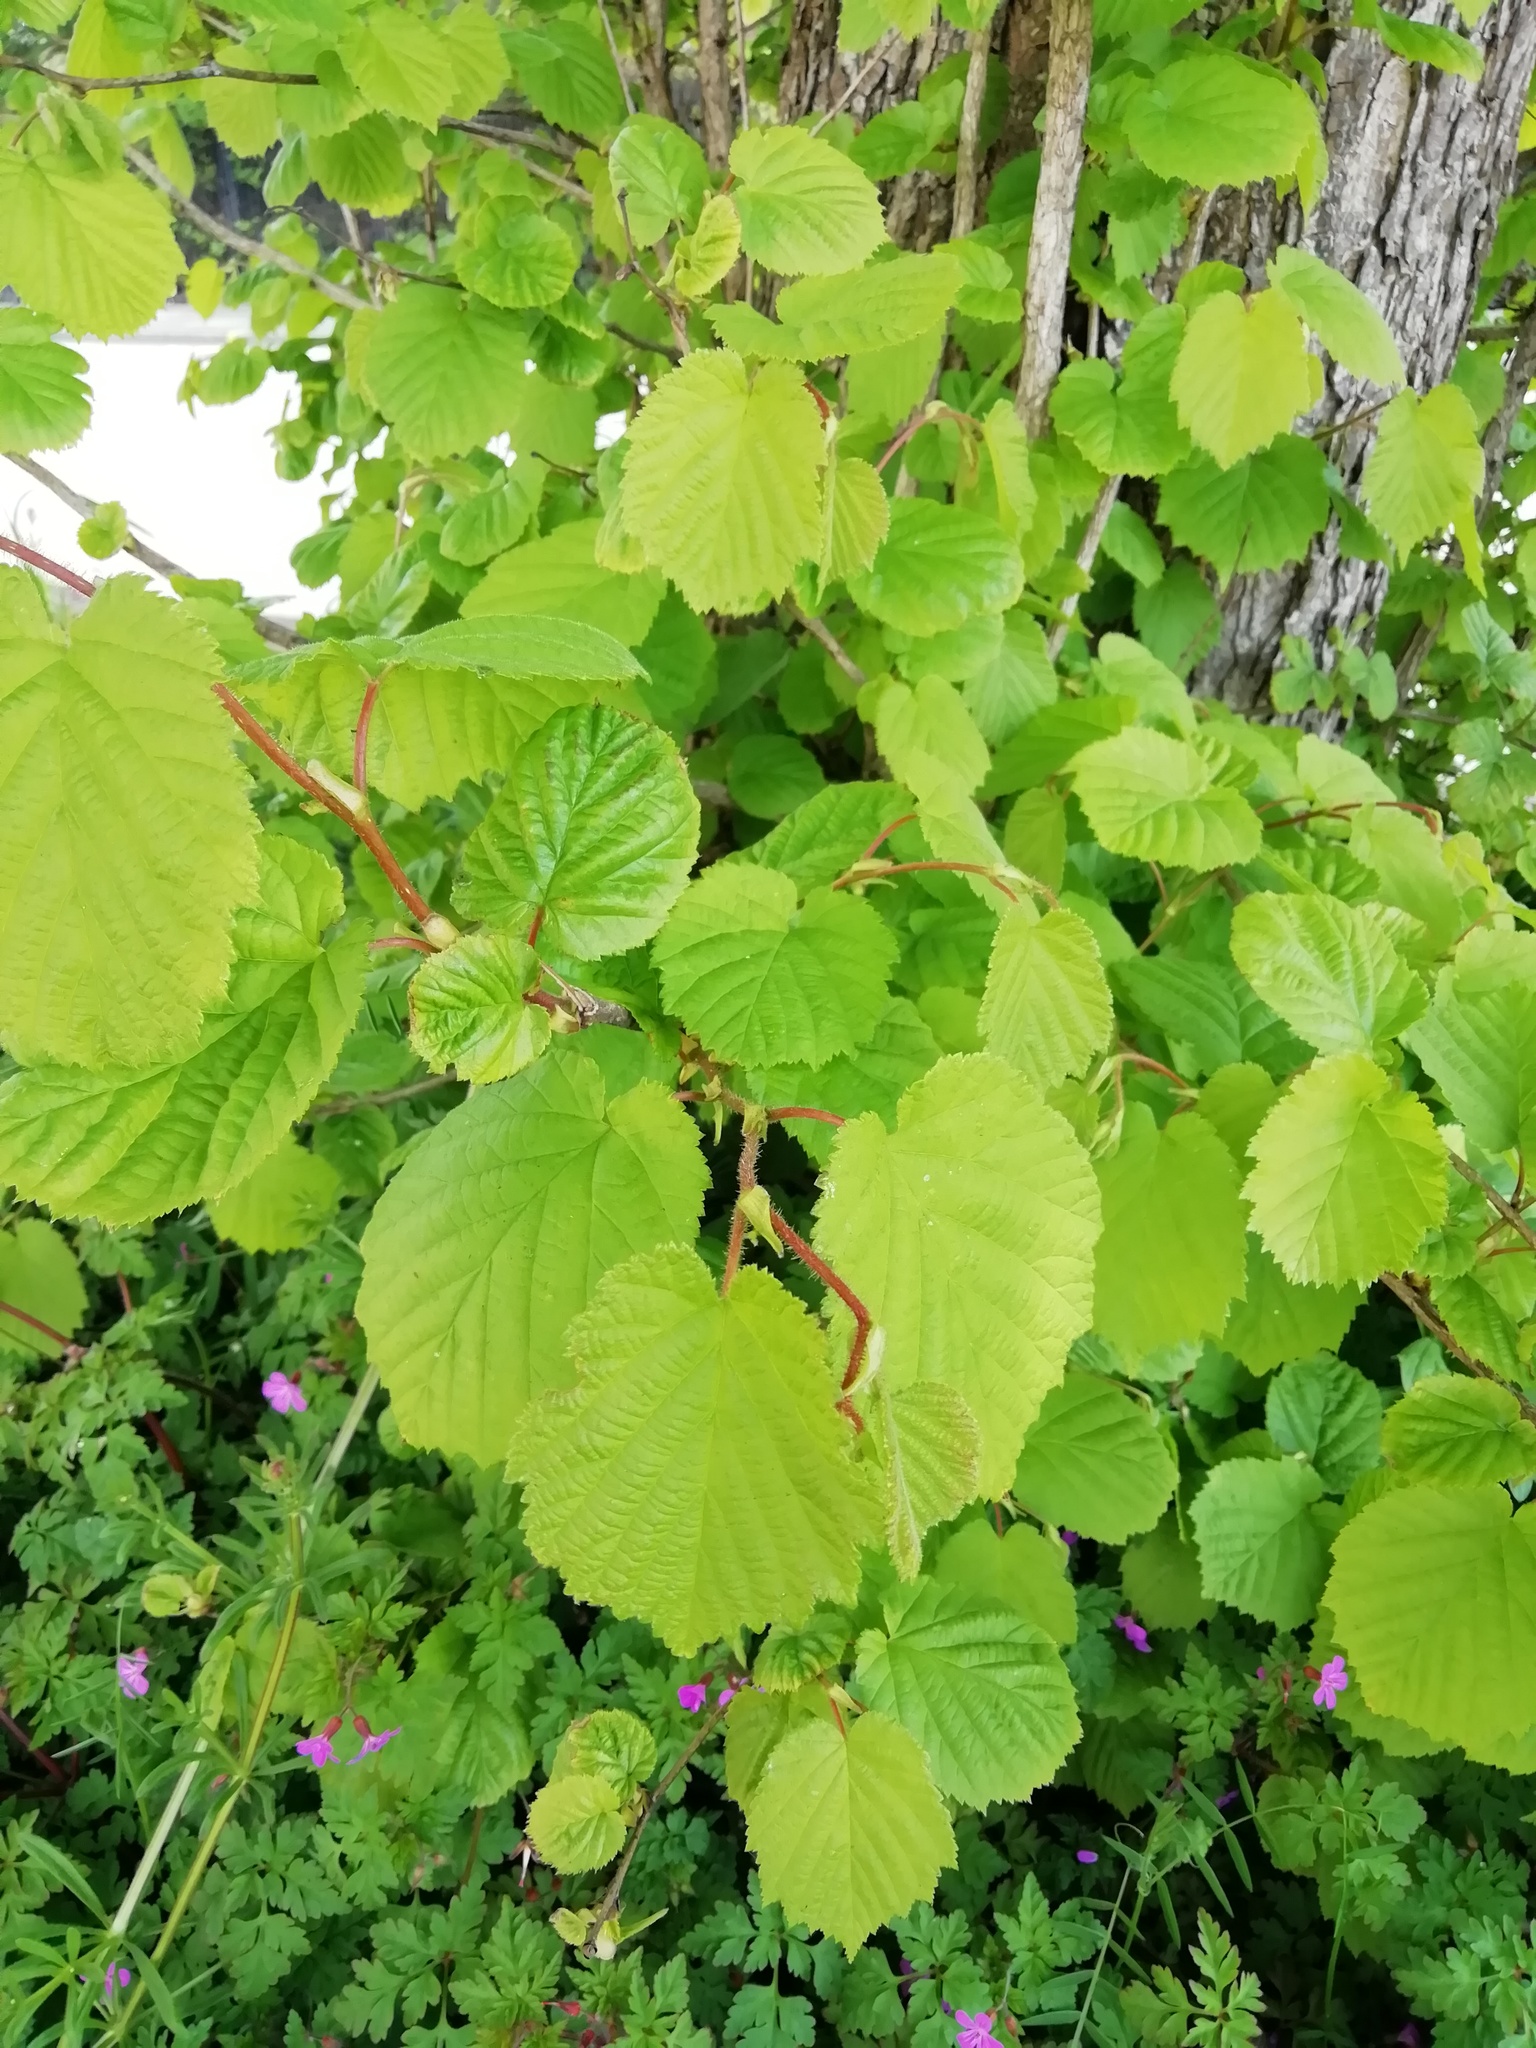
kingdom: Plantae
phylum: Tracheophyta
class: Magnoliopsida
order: Fagales
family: Betulaceae
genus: Corylus
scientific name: Corylus avellana
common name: European hazel
